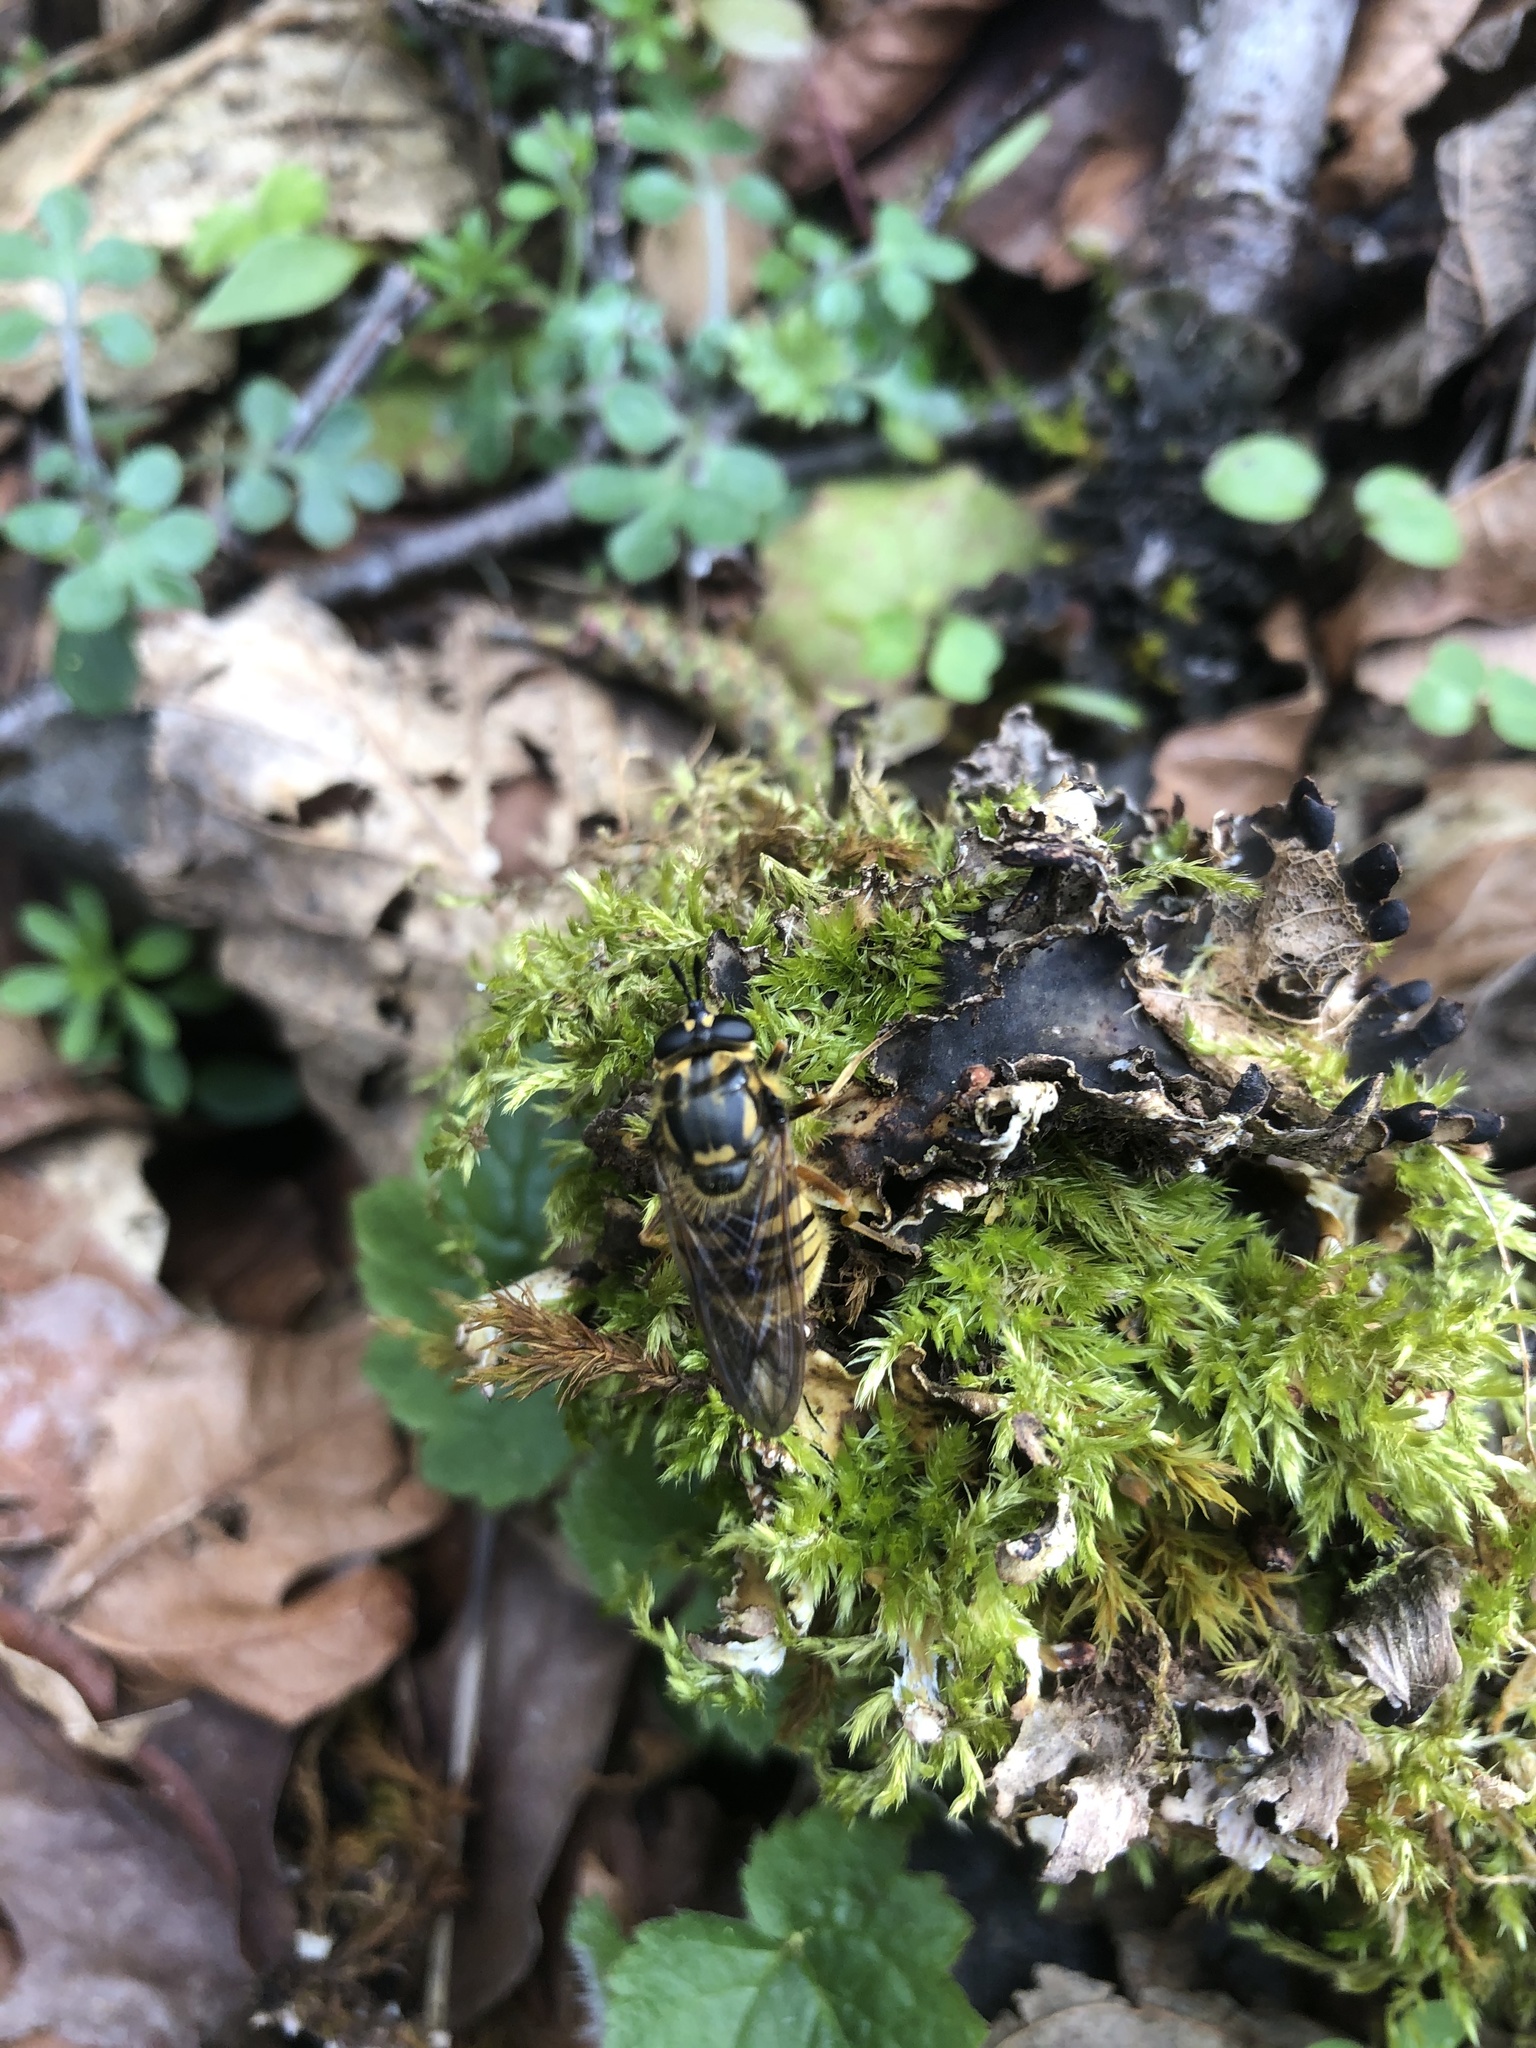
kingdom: Animalia
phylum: Arthropoda
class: Insecta
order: Diptera
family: Syrphidae
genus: Criorhina
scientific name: Criorhina occidentalis
